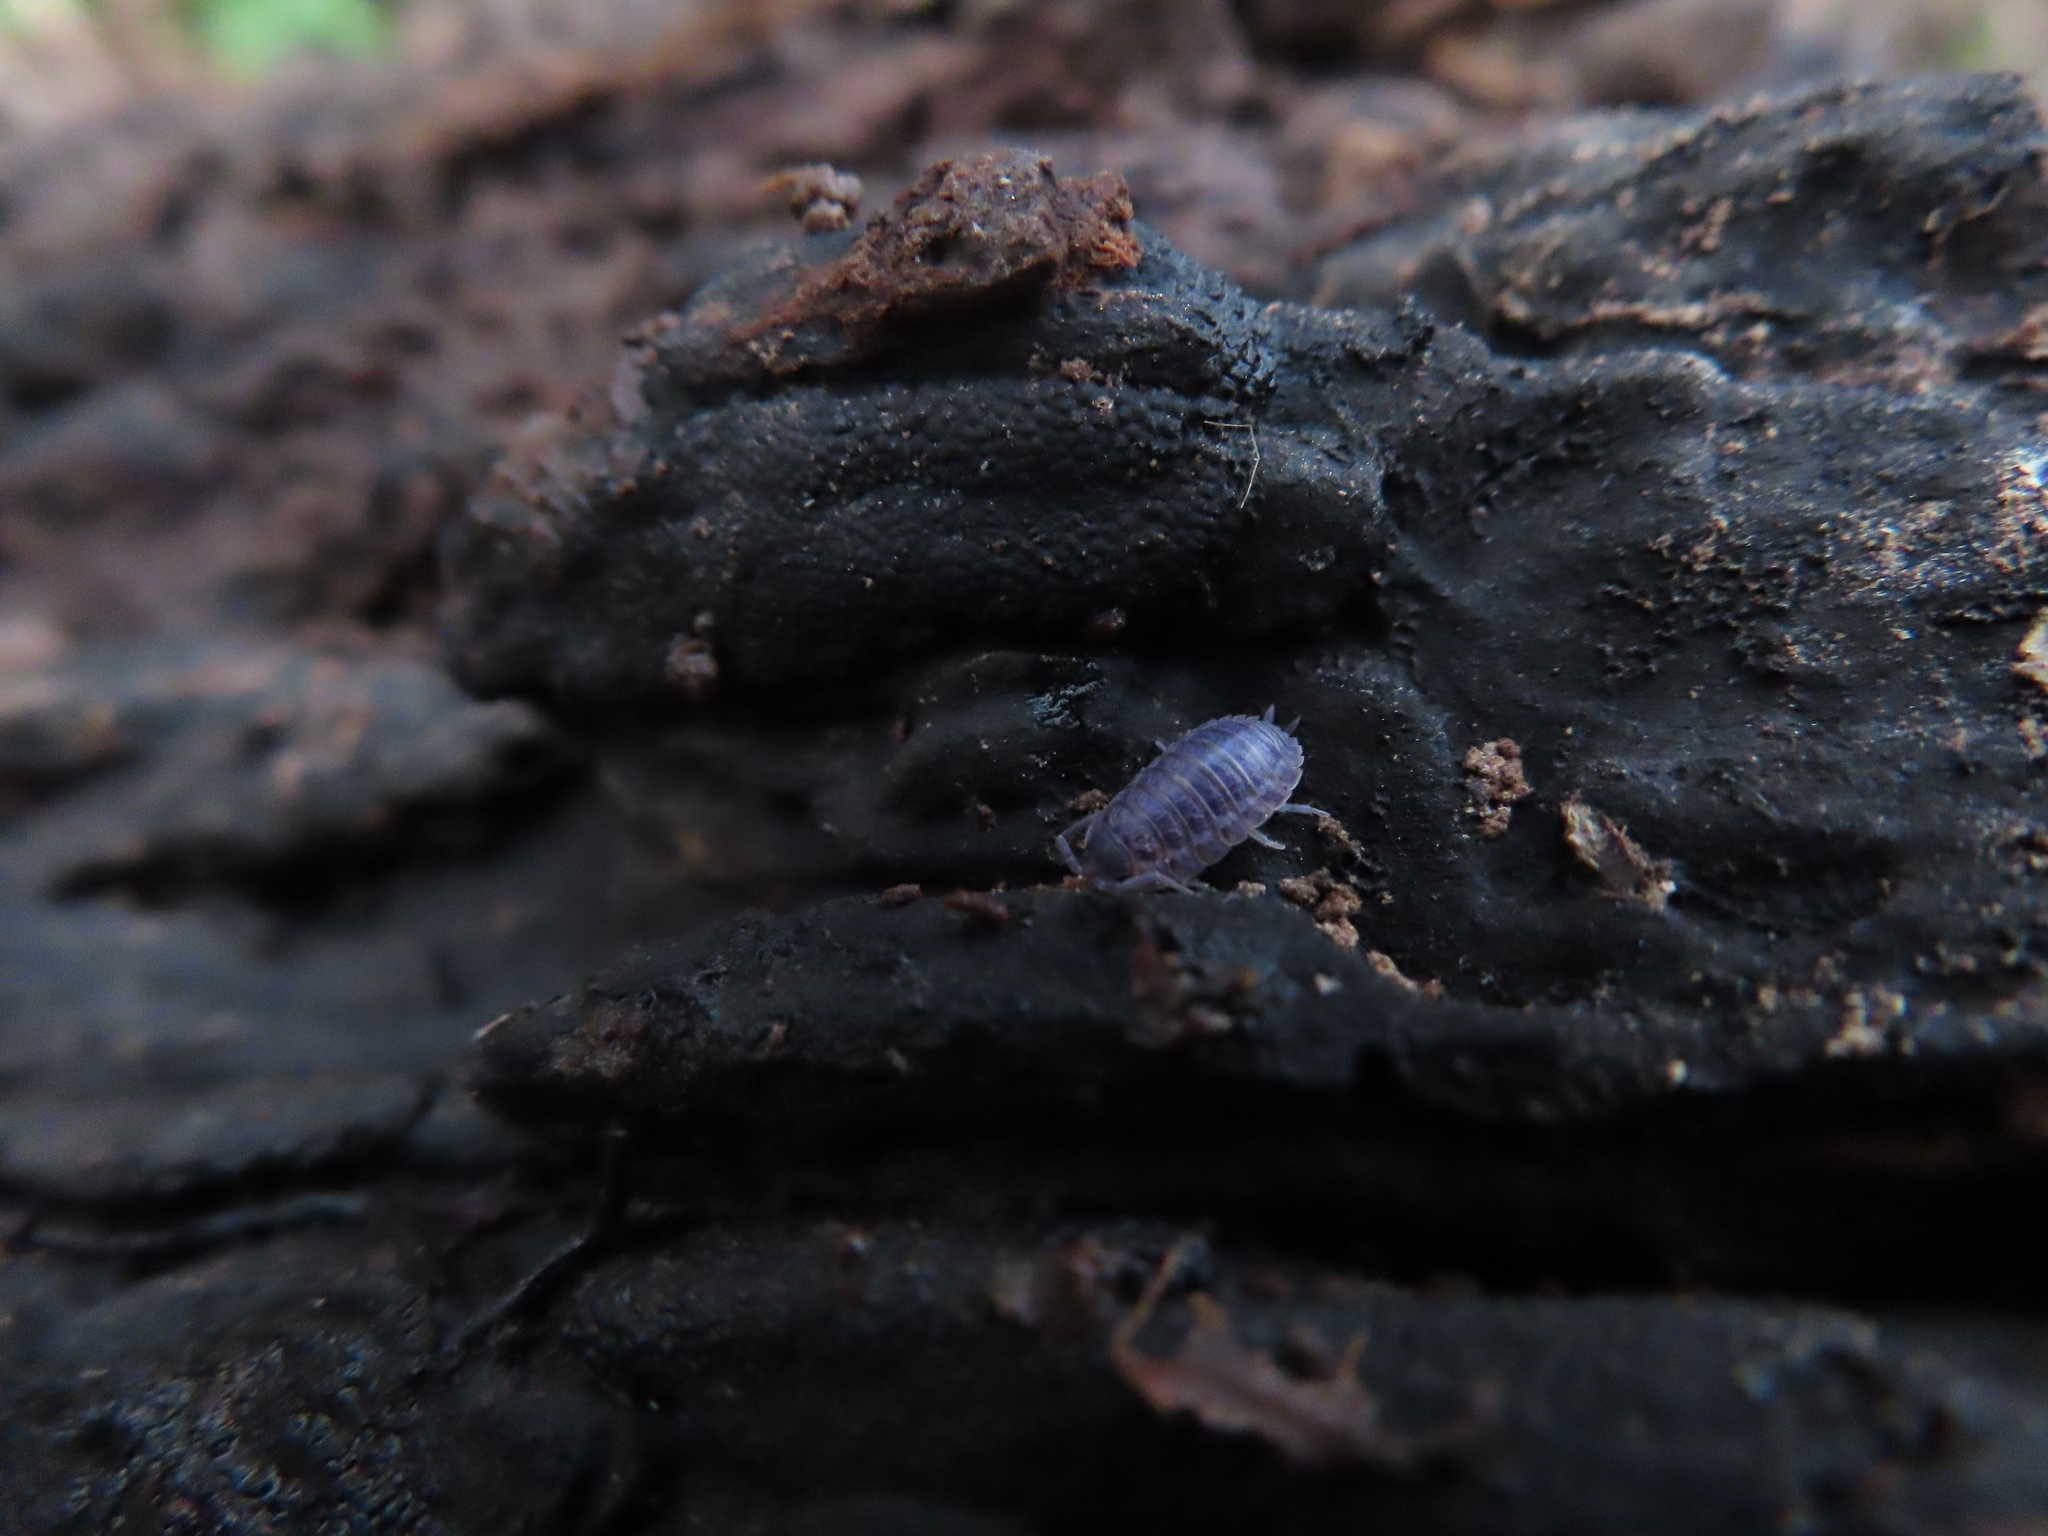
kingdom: Viruses
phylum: Nucleocytoviricota
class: Megaviricetes
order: Pimascovirales
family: Iridoviridae
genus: Iridovirus
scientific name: Iridovirus Invertebrate iridescent virus 31
